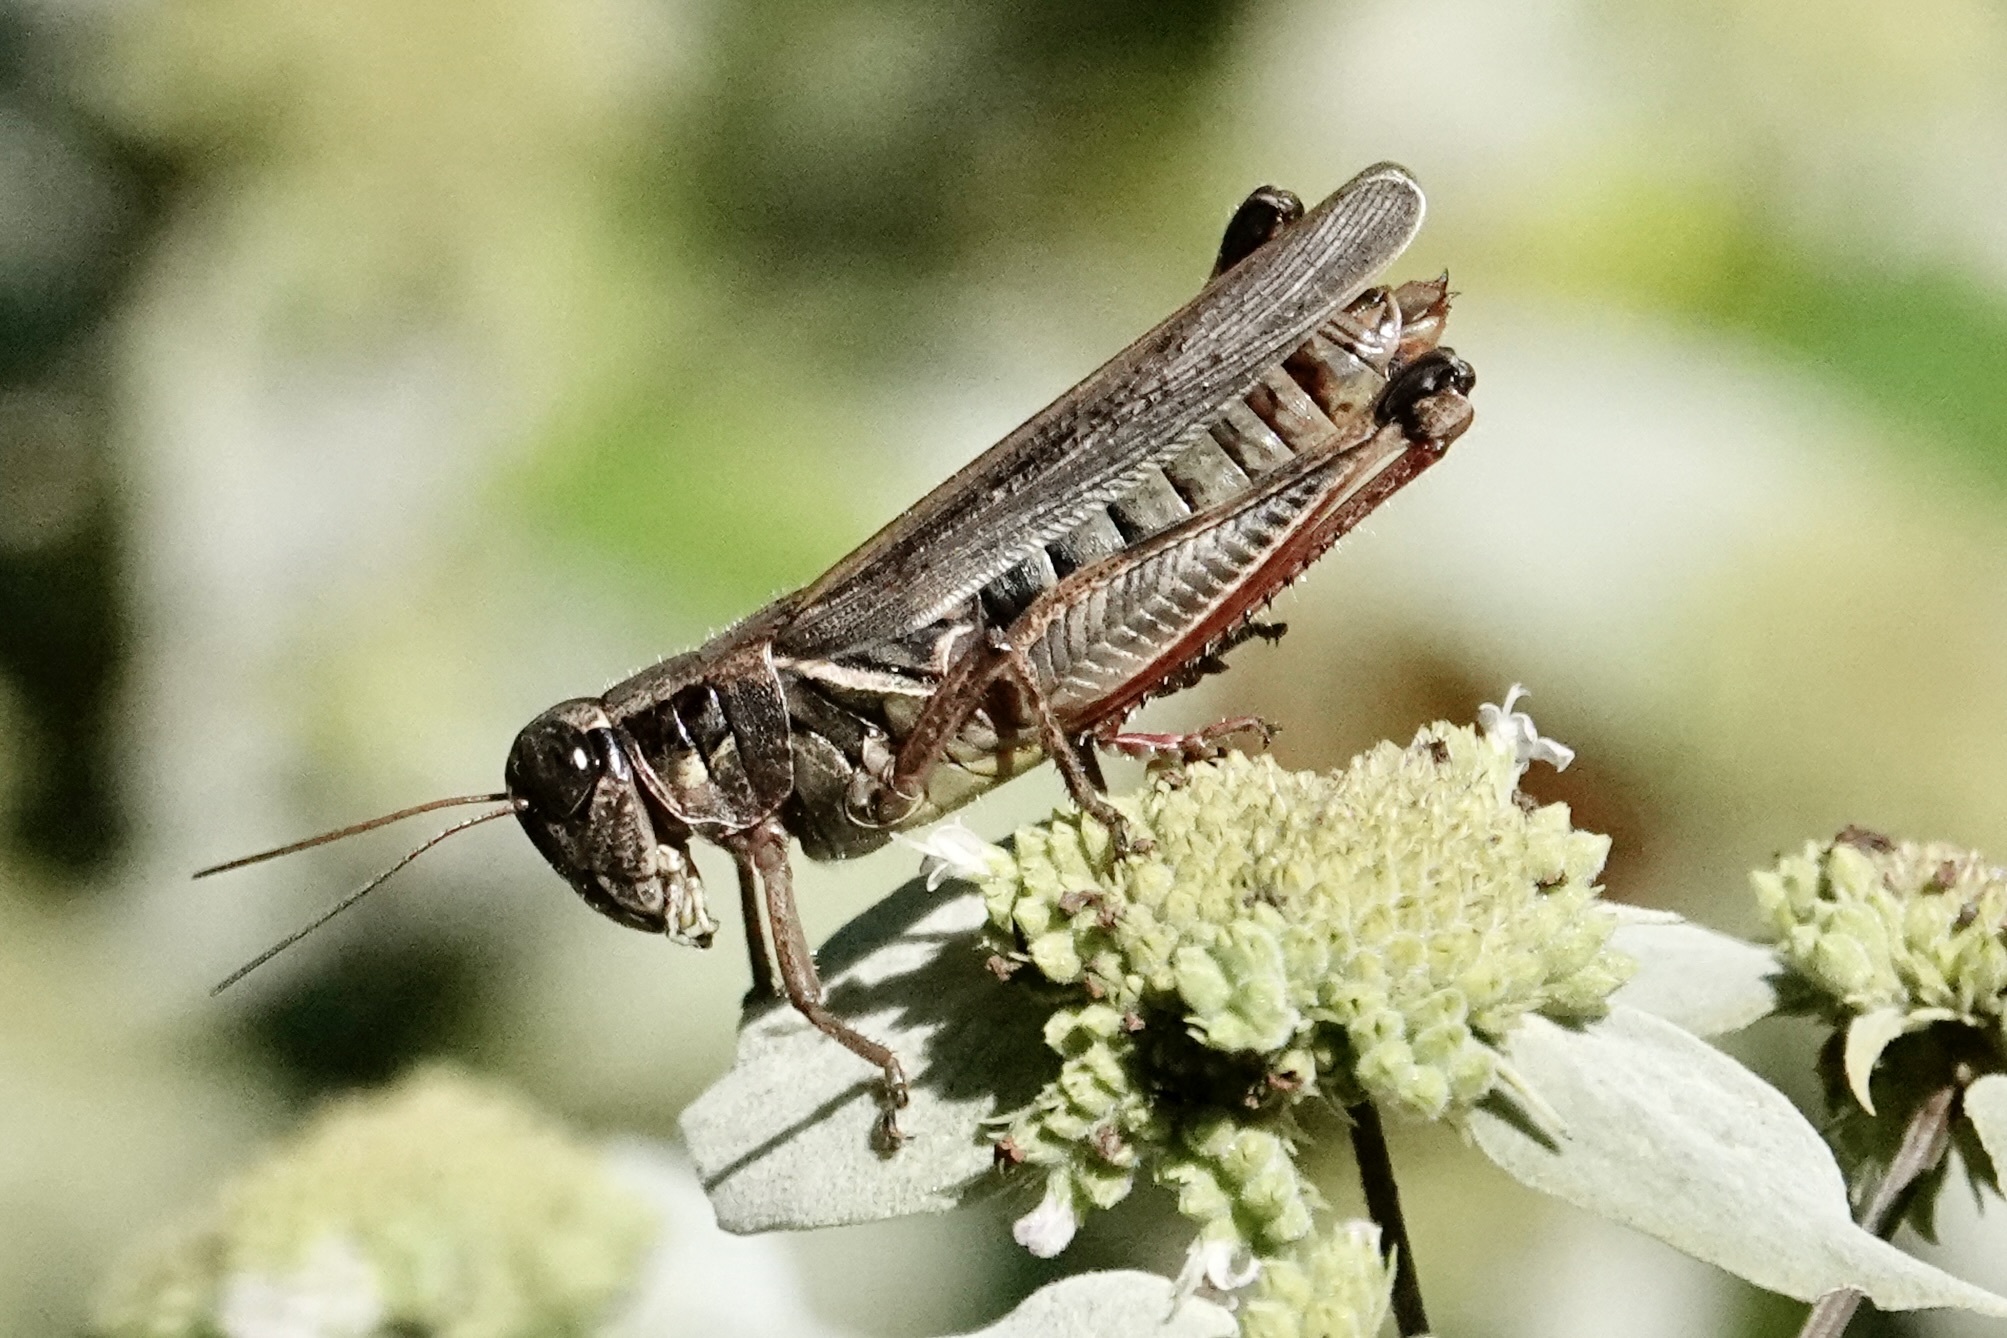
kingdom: Animalia
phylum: Arthropoda
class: Insecta
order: Orthoptera
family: Acrididae
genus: Melanoplus
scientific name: Melanoplus femurrubrum
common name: Red-legged grasshopper
